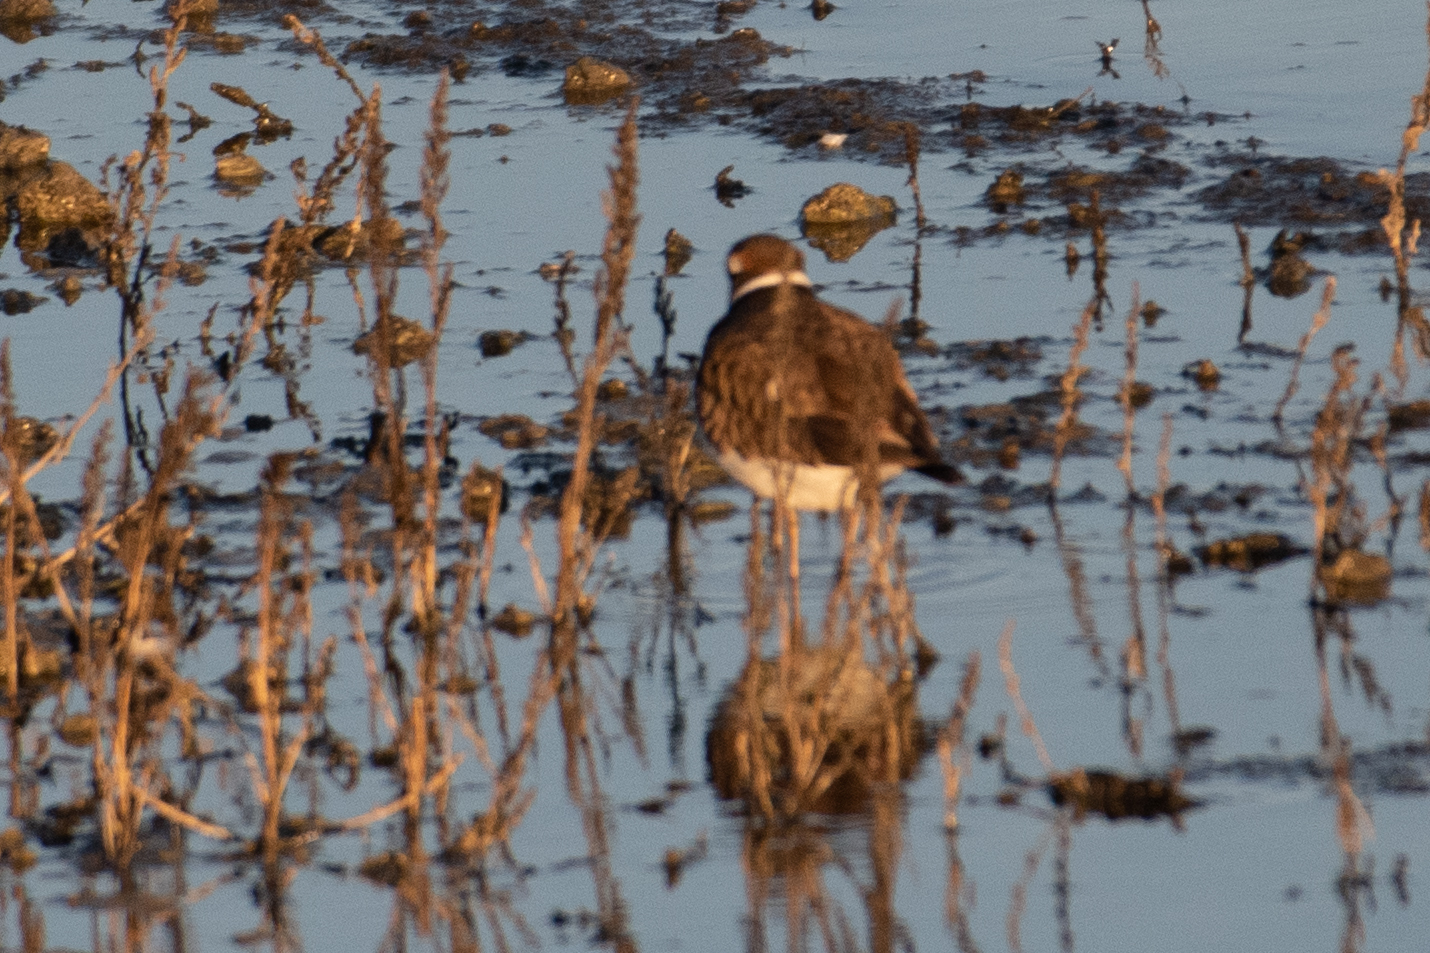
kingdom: Animalia
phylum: Chordata
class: Aves
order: Charadriiformes
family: Charadriidae
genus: Charadrius
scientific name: Charadrius vociferus
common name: Killdeer
